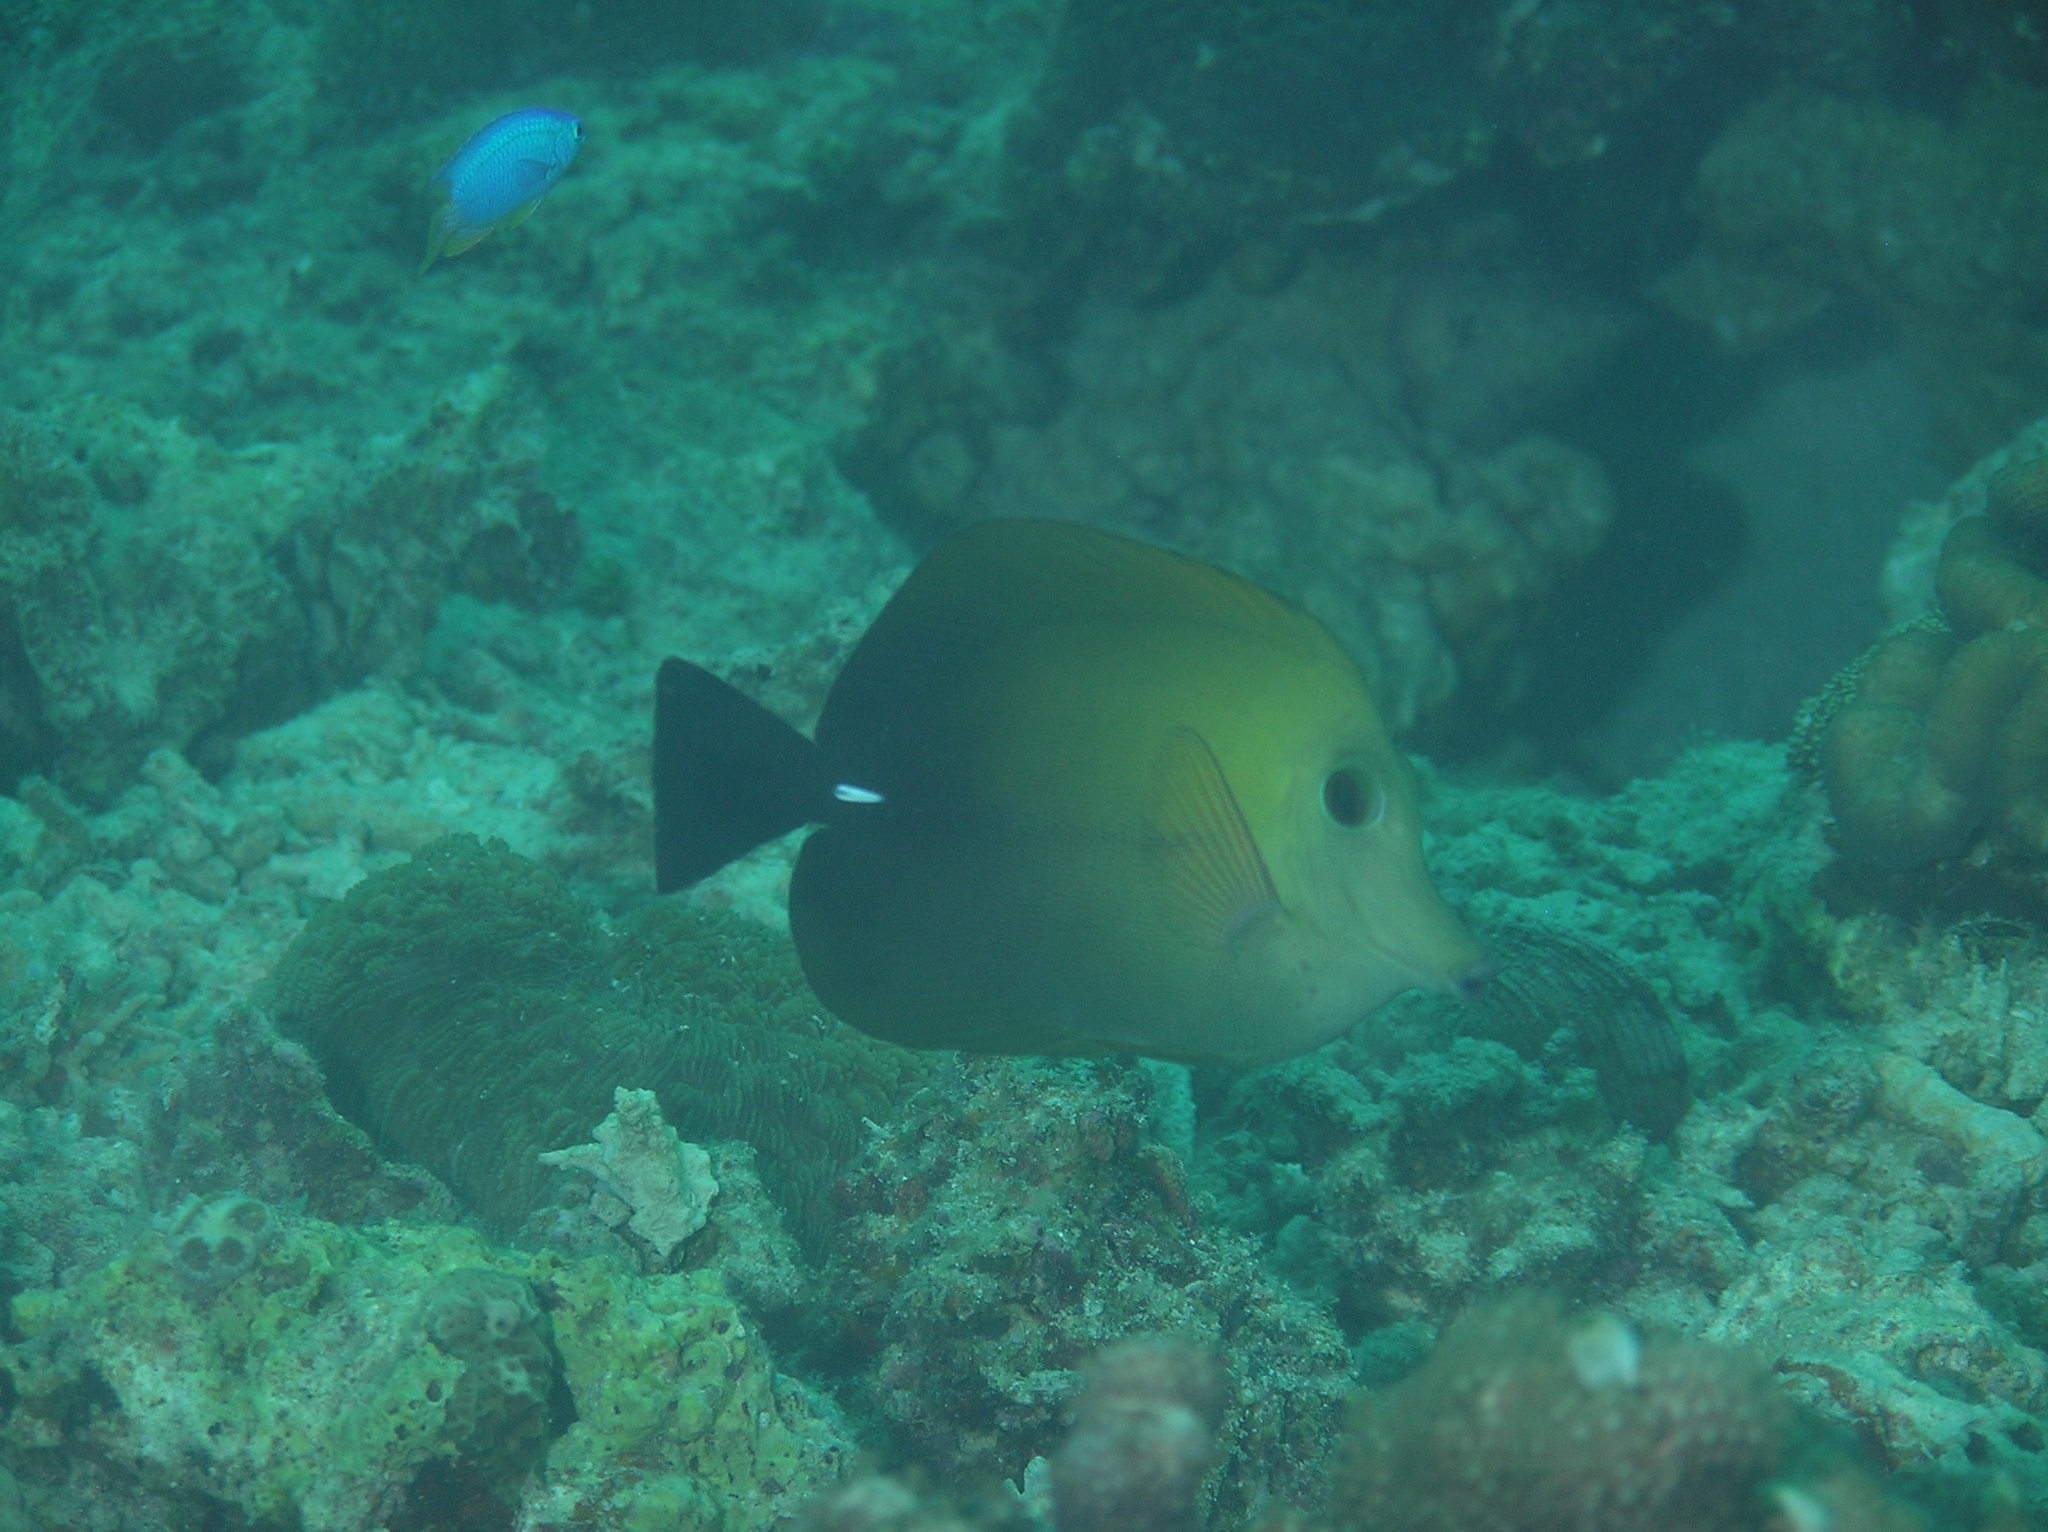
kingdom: Animalia
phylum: Chordata
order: Perciformes
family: Acanthuridae
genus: Zebrasoma
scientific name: Zebrasoma scopas
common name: Twotone tang
